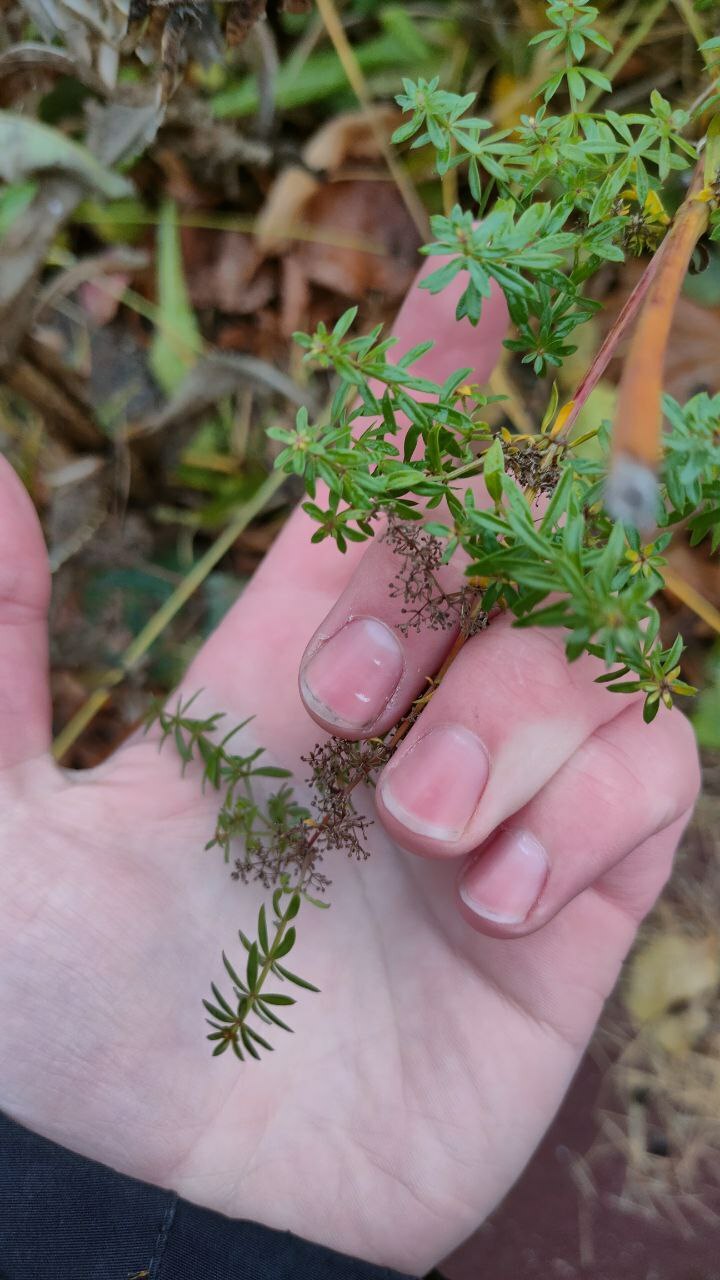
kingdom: Plantae
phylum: Tracheophyta
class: Magnoliopsida
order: Gentianales
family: Rubiaceae
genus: Galium
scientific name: Galium mollugo
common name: Hedge bedstraw
